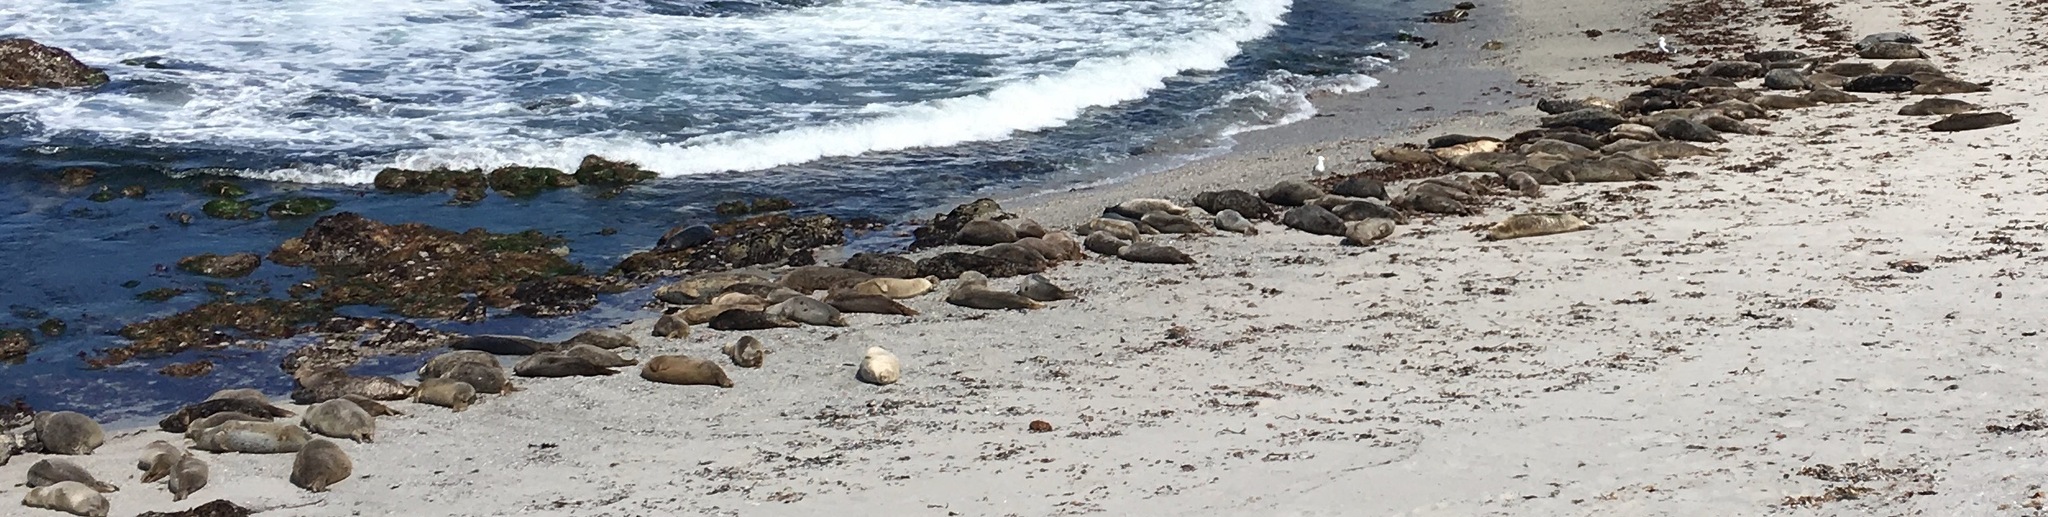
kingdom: Animalia
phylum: Chordata
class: Mammalia
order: Carnivora
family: Phocidae
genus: Phoca
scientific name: Phoca vitulina
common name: Harbor seal
